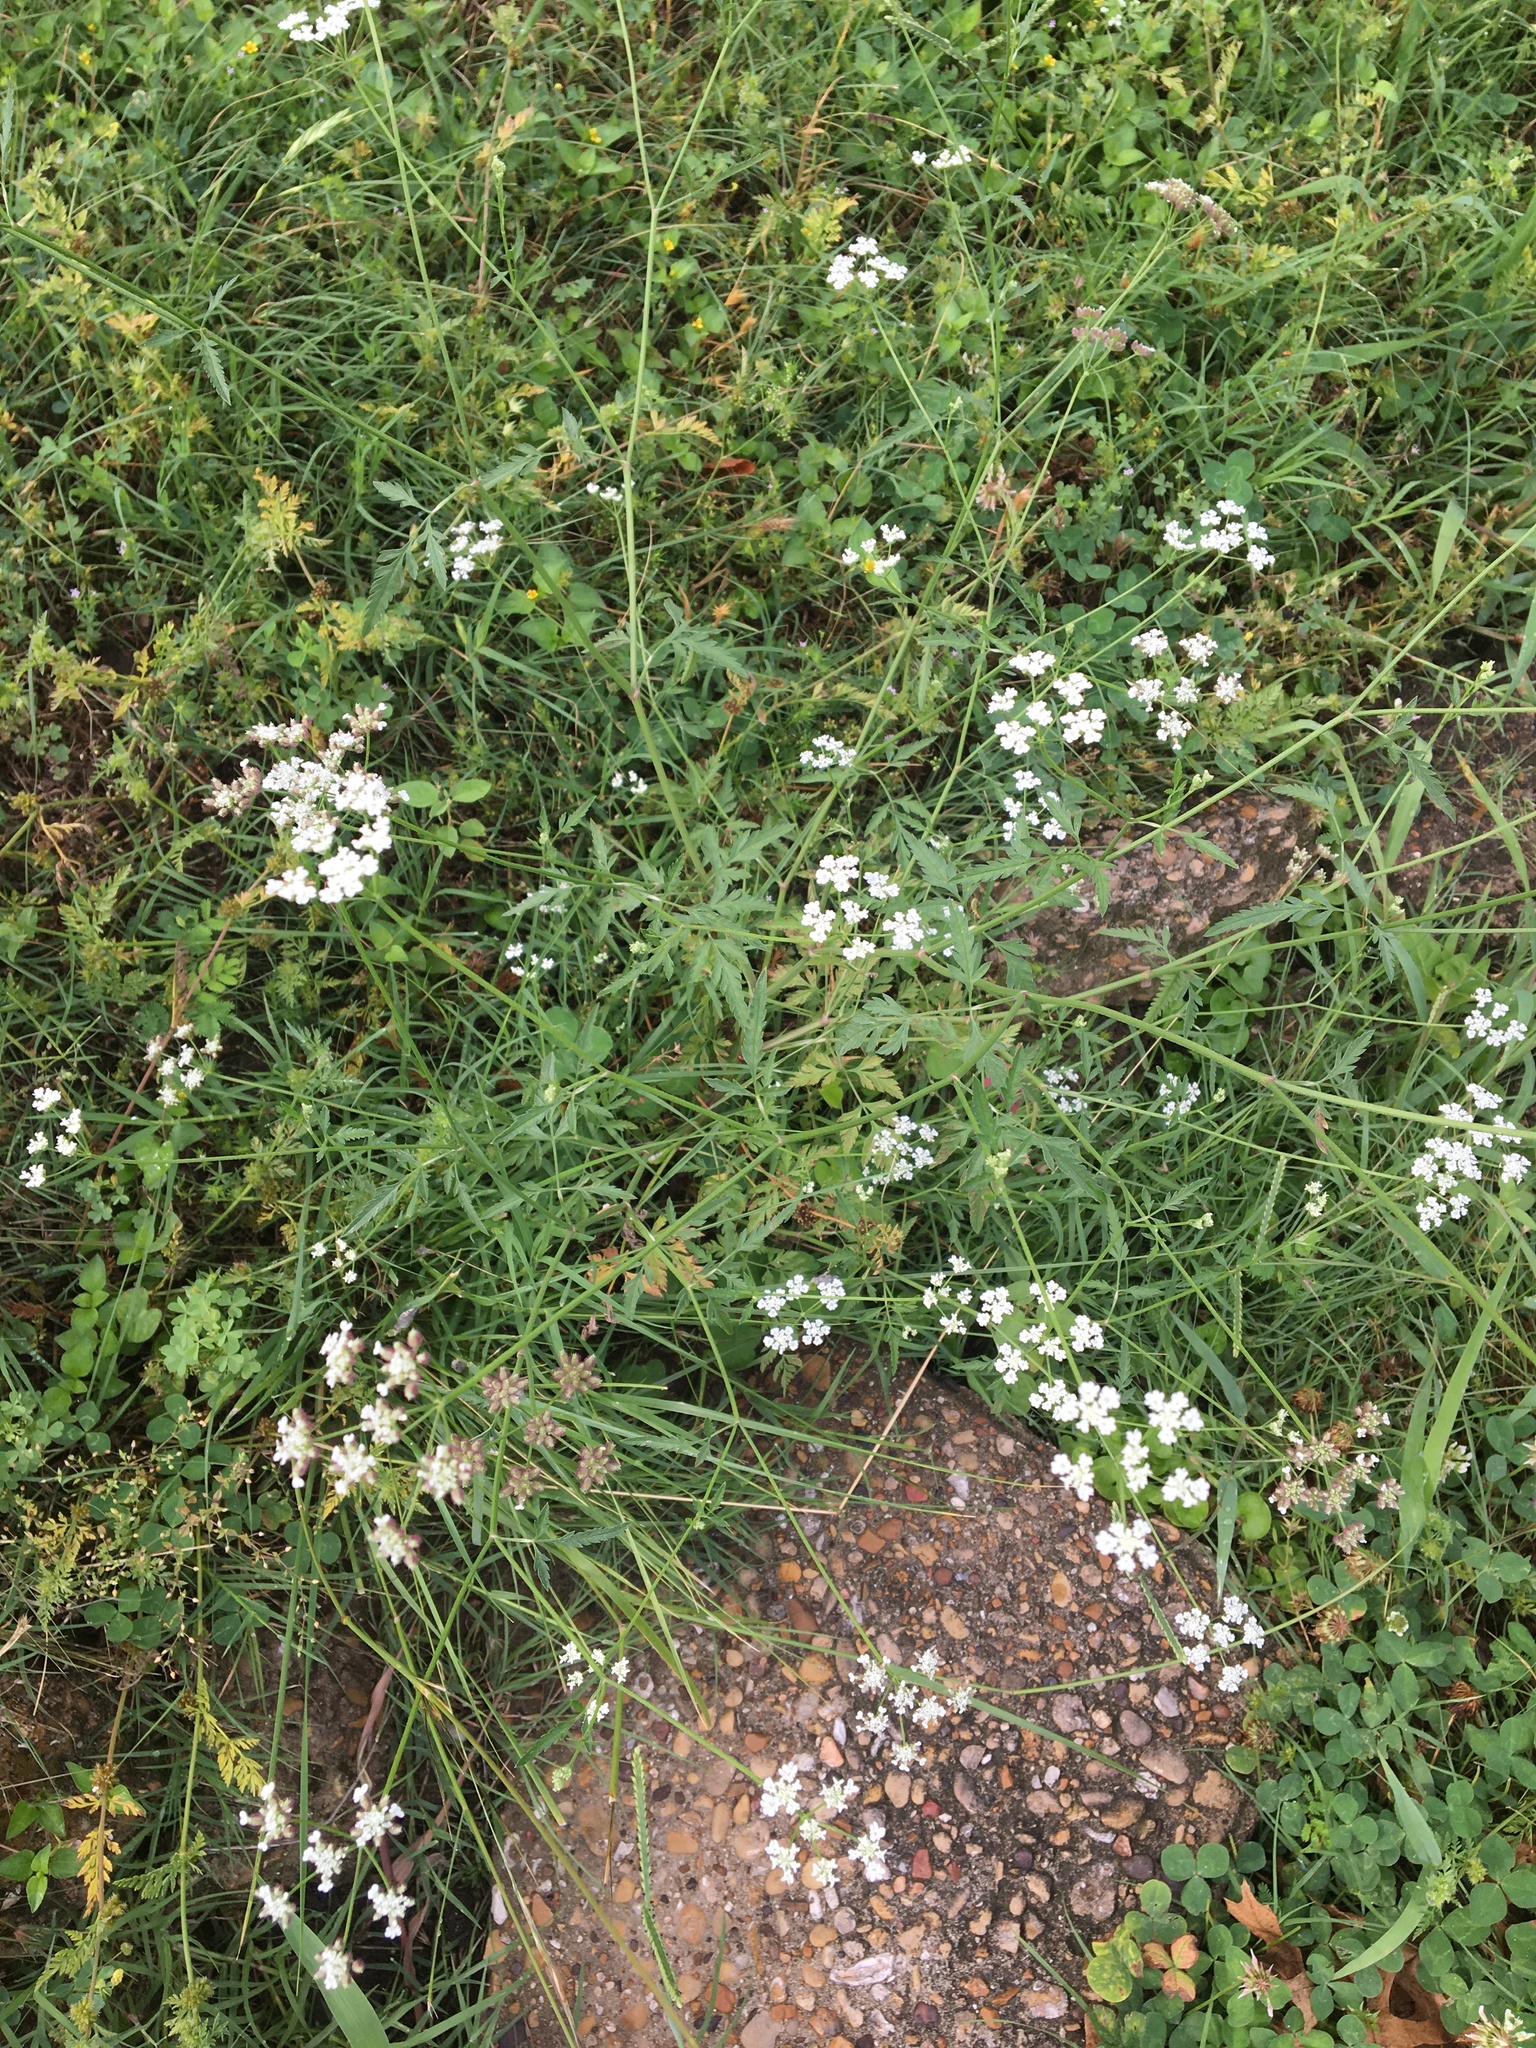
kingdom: Plantae
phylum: Tracheophyta
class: Magnoliopsida
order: Apiales
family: Apiaceae
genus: Torilis
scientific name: Torilis arvensis
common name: Spreading hedge-parsley
